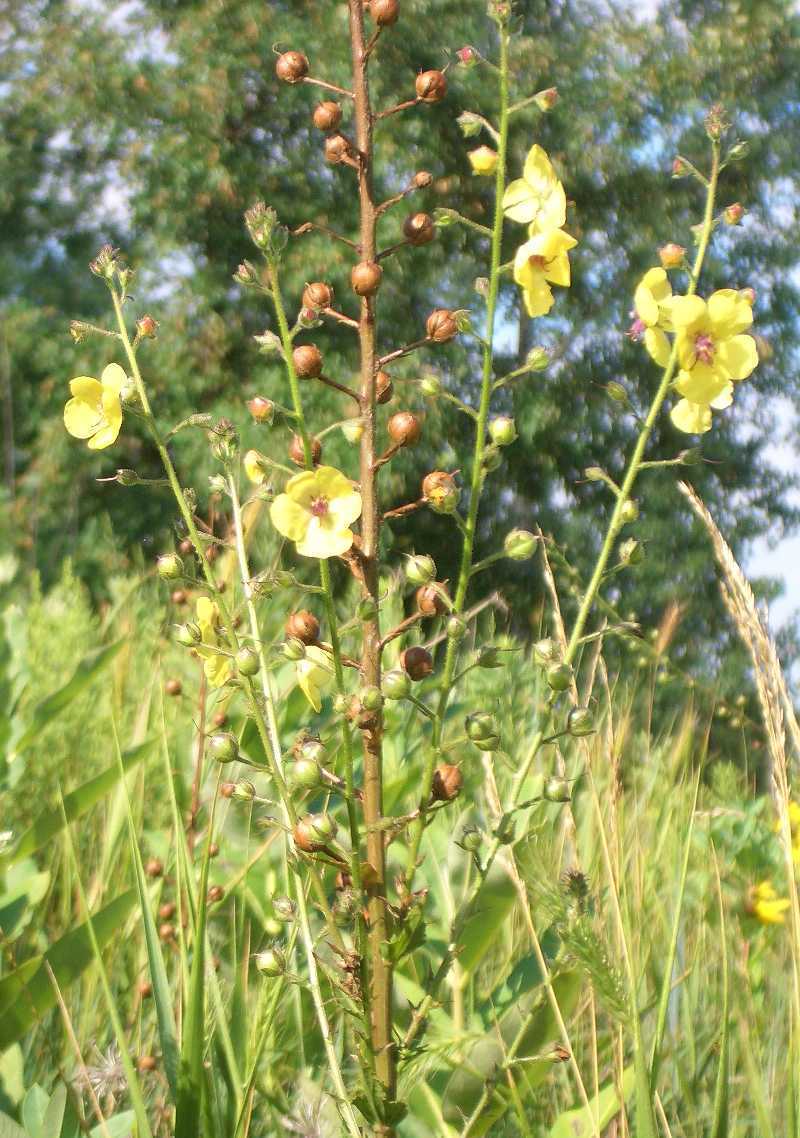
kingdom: Plantae
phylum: Tracheophyta
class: Magnoliopsida
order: Lamiales
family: Scrophulariaceae
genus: Verbascum
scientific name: Verbascum blattaria
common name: Moth mullein
